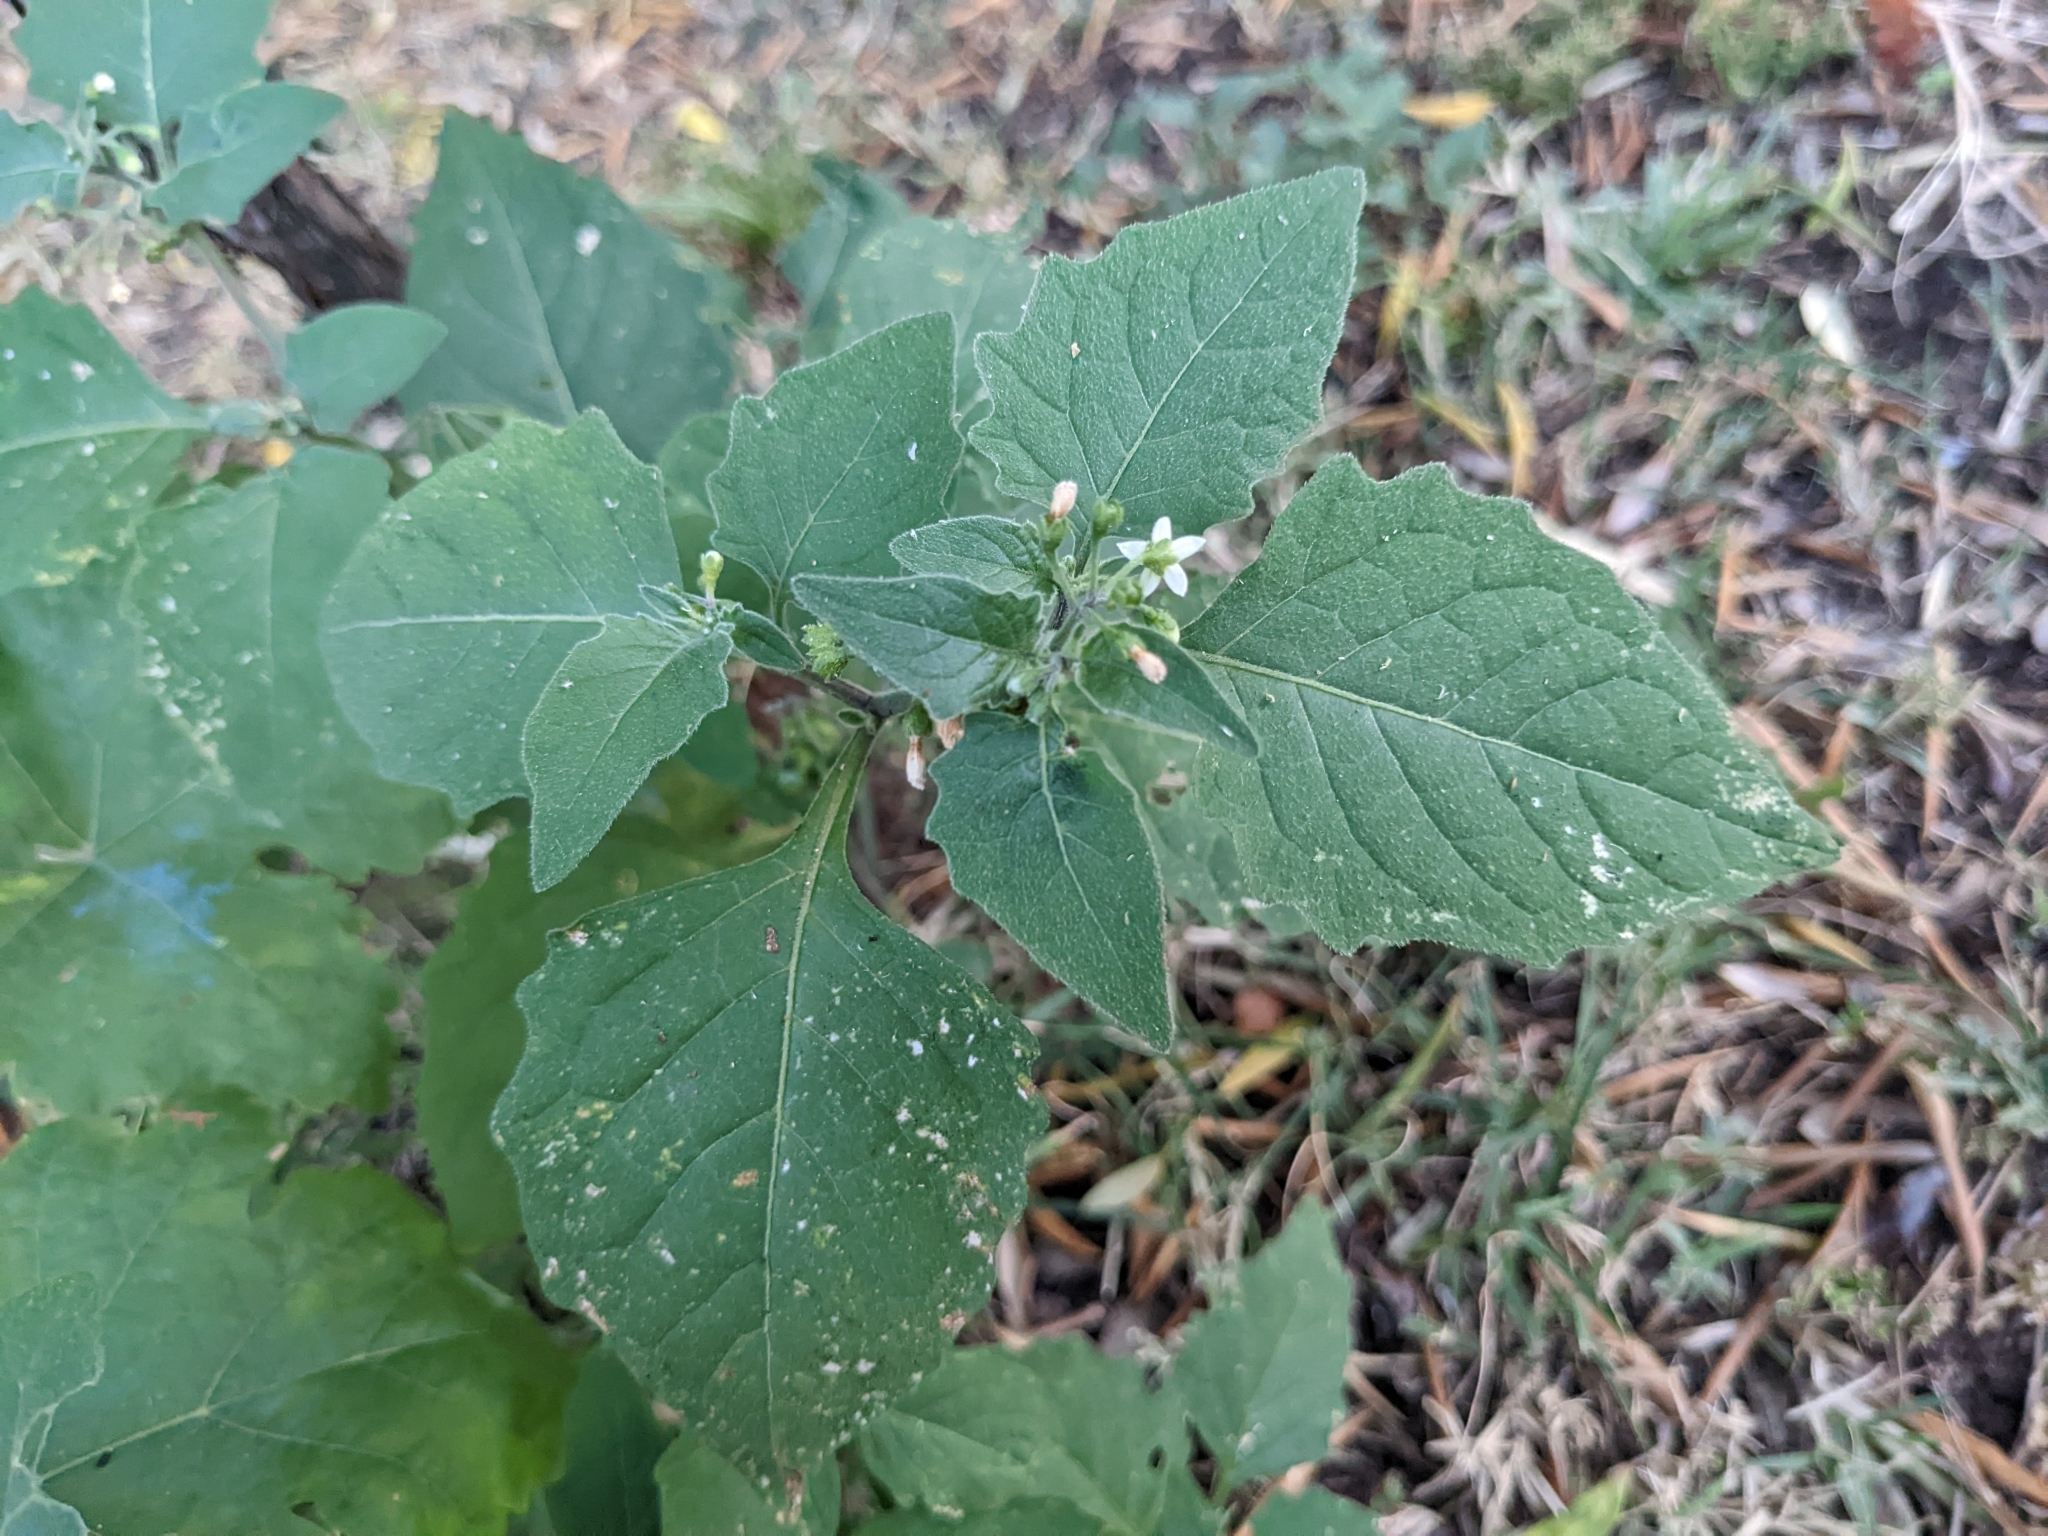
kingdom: Plantae
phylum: Tracheophyta
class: Magnoliopsida
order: Solanales
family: Solanaceae
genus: Solanum
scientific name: Solanum nigrum
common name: Black nightshade
